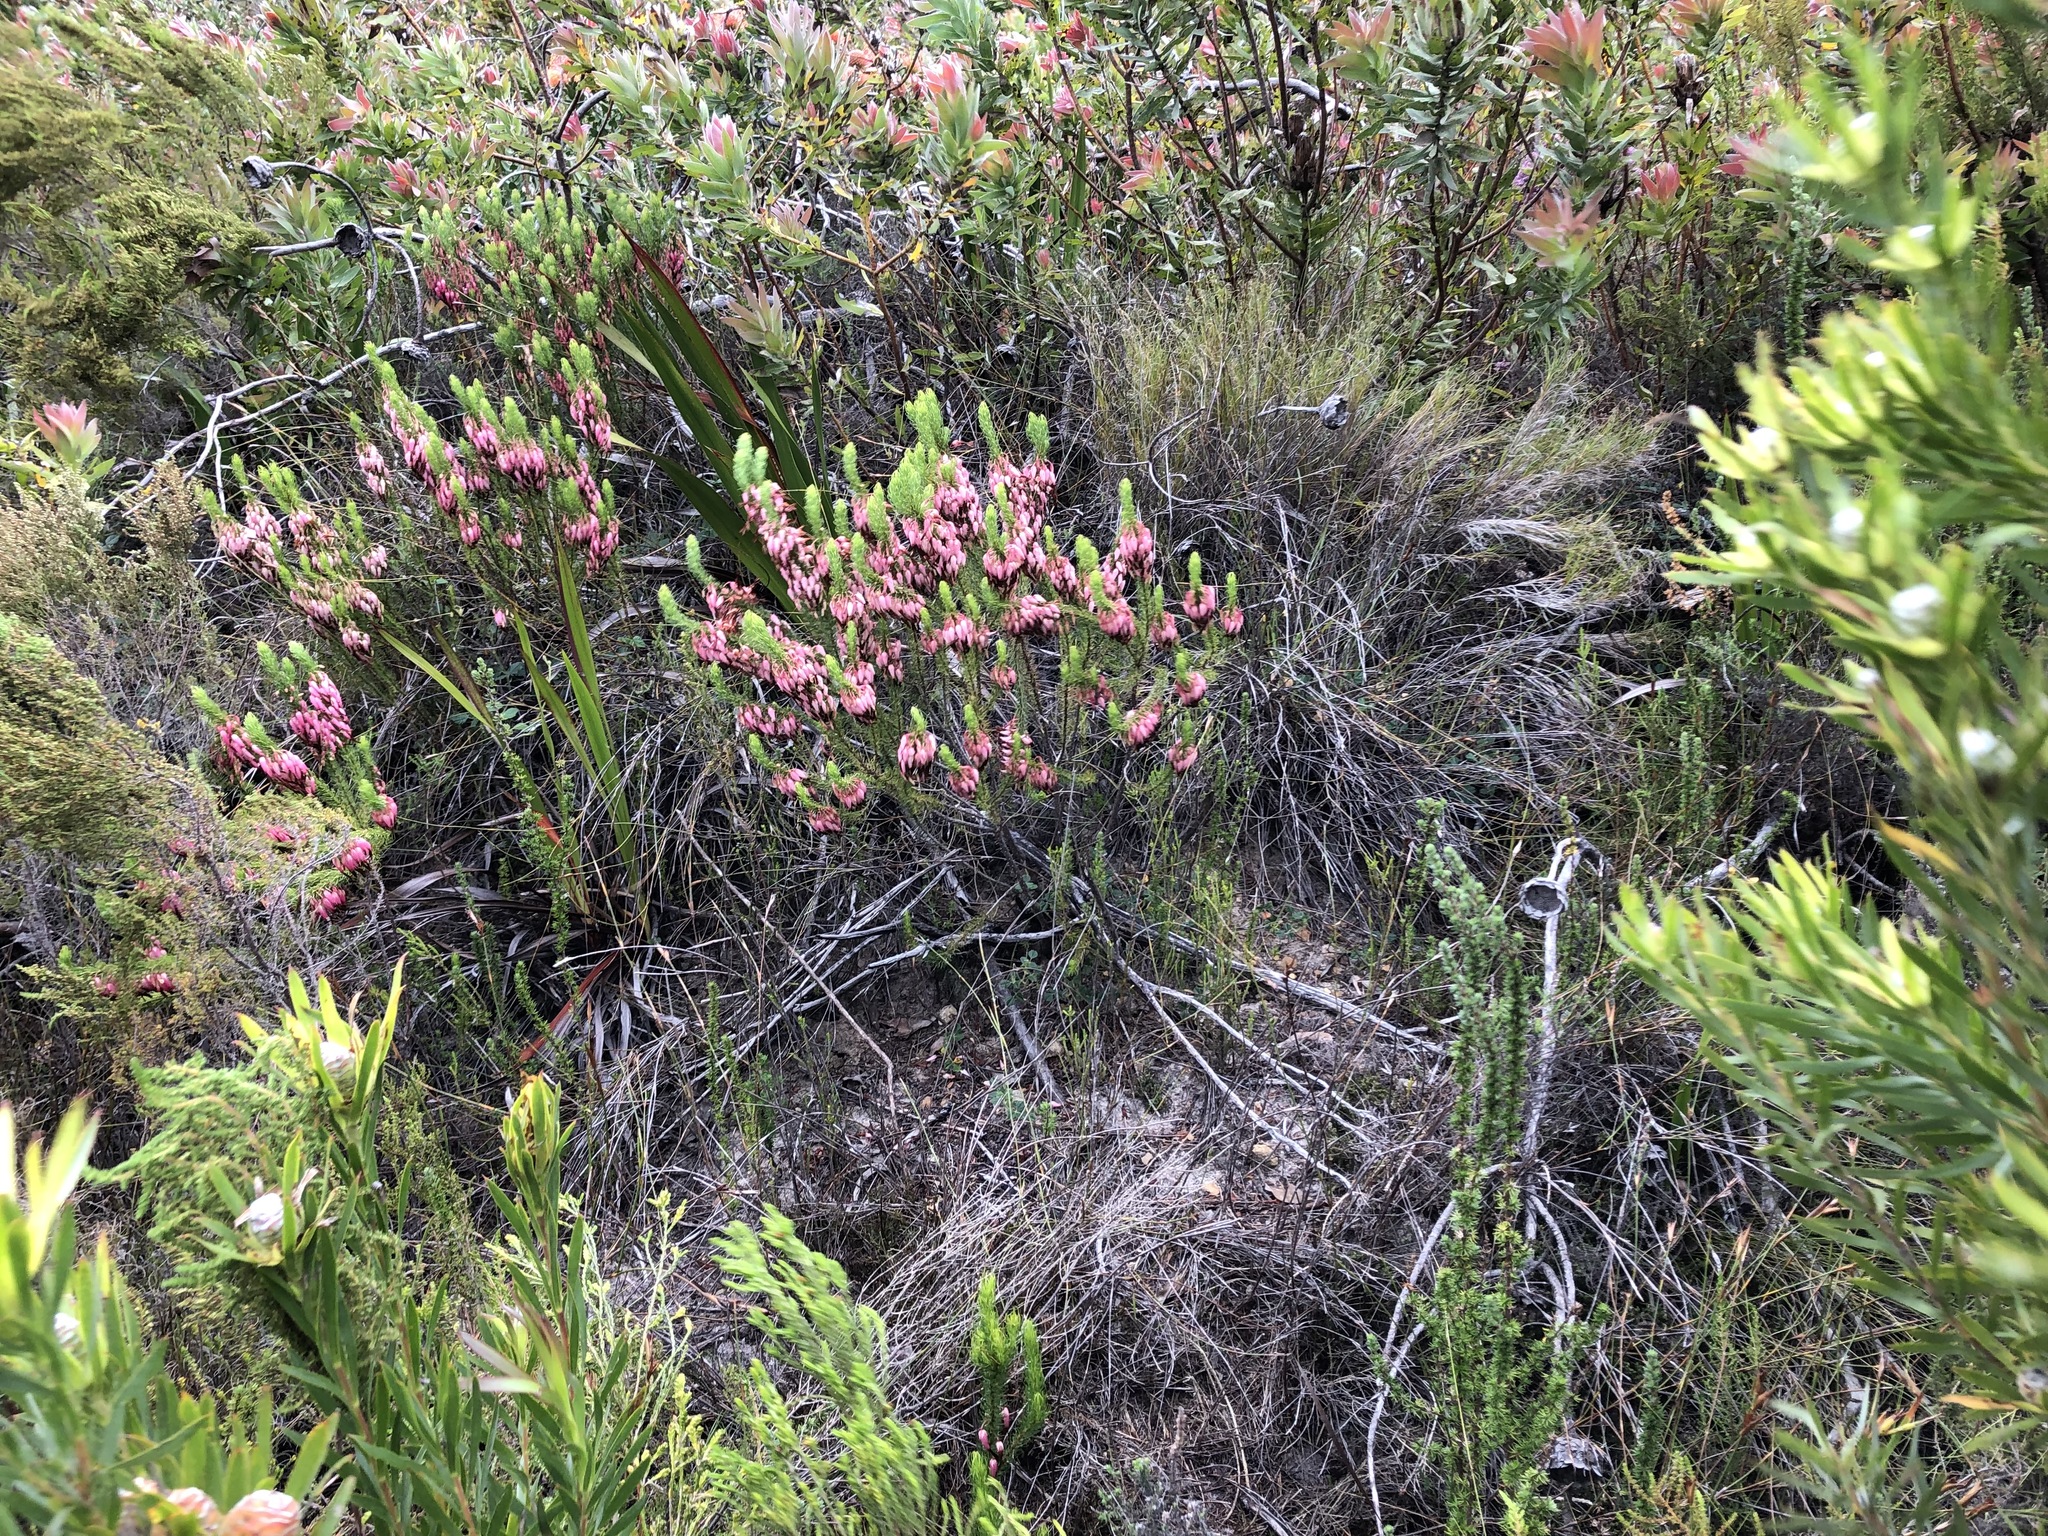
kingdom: Plantae
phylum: Tracheophyta
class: Magnoliopsida
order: Ericales
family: Ericaceae
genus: Erica
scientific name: Erica plukenetii
